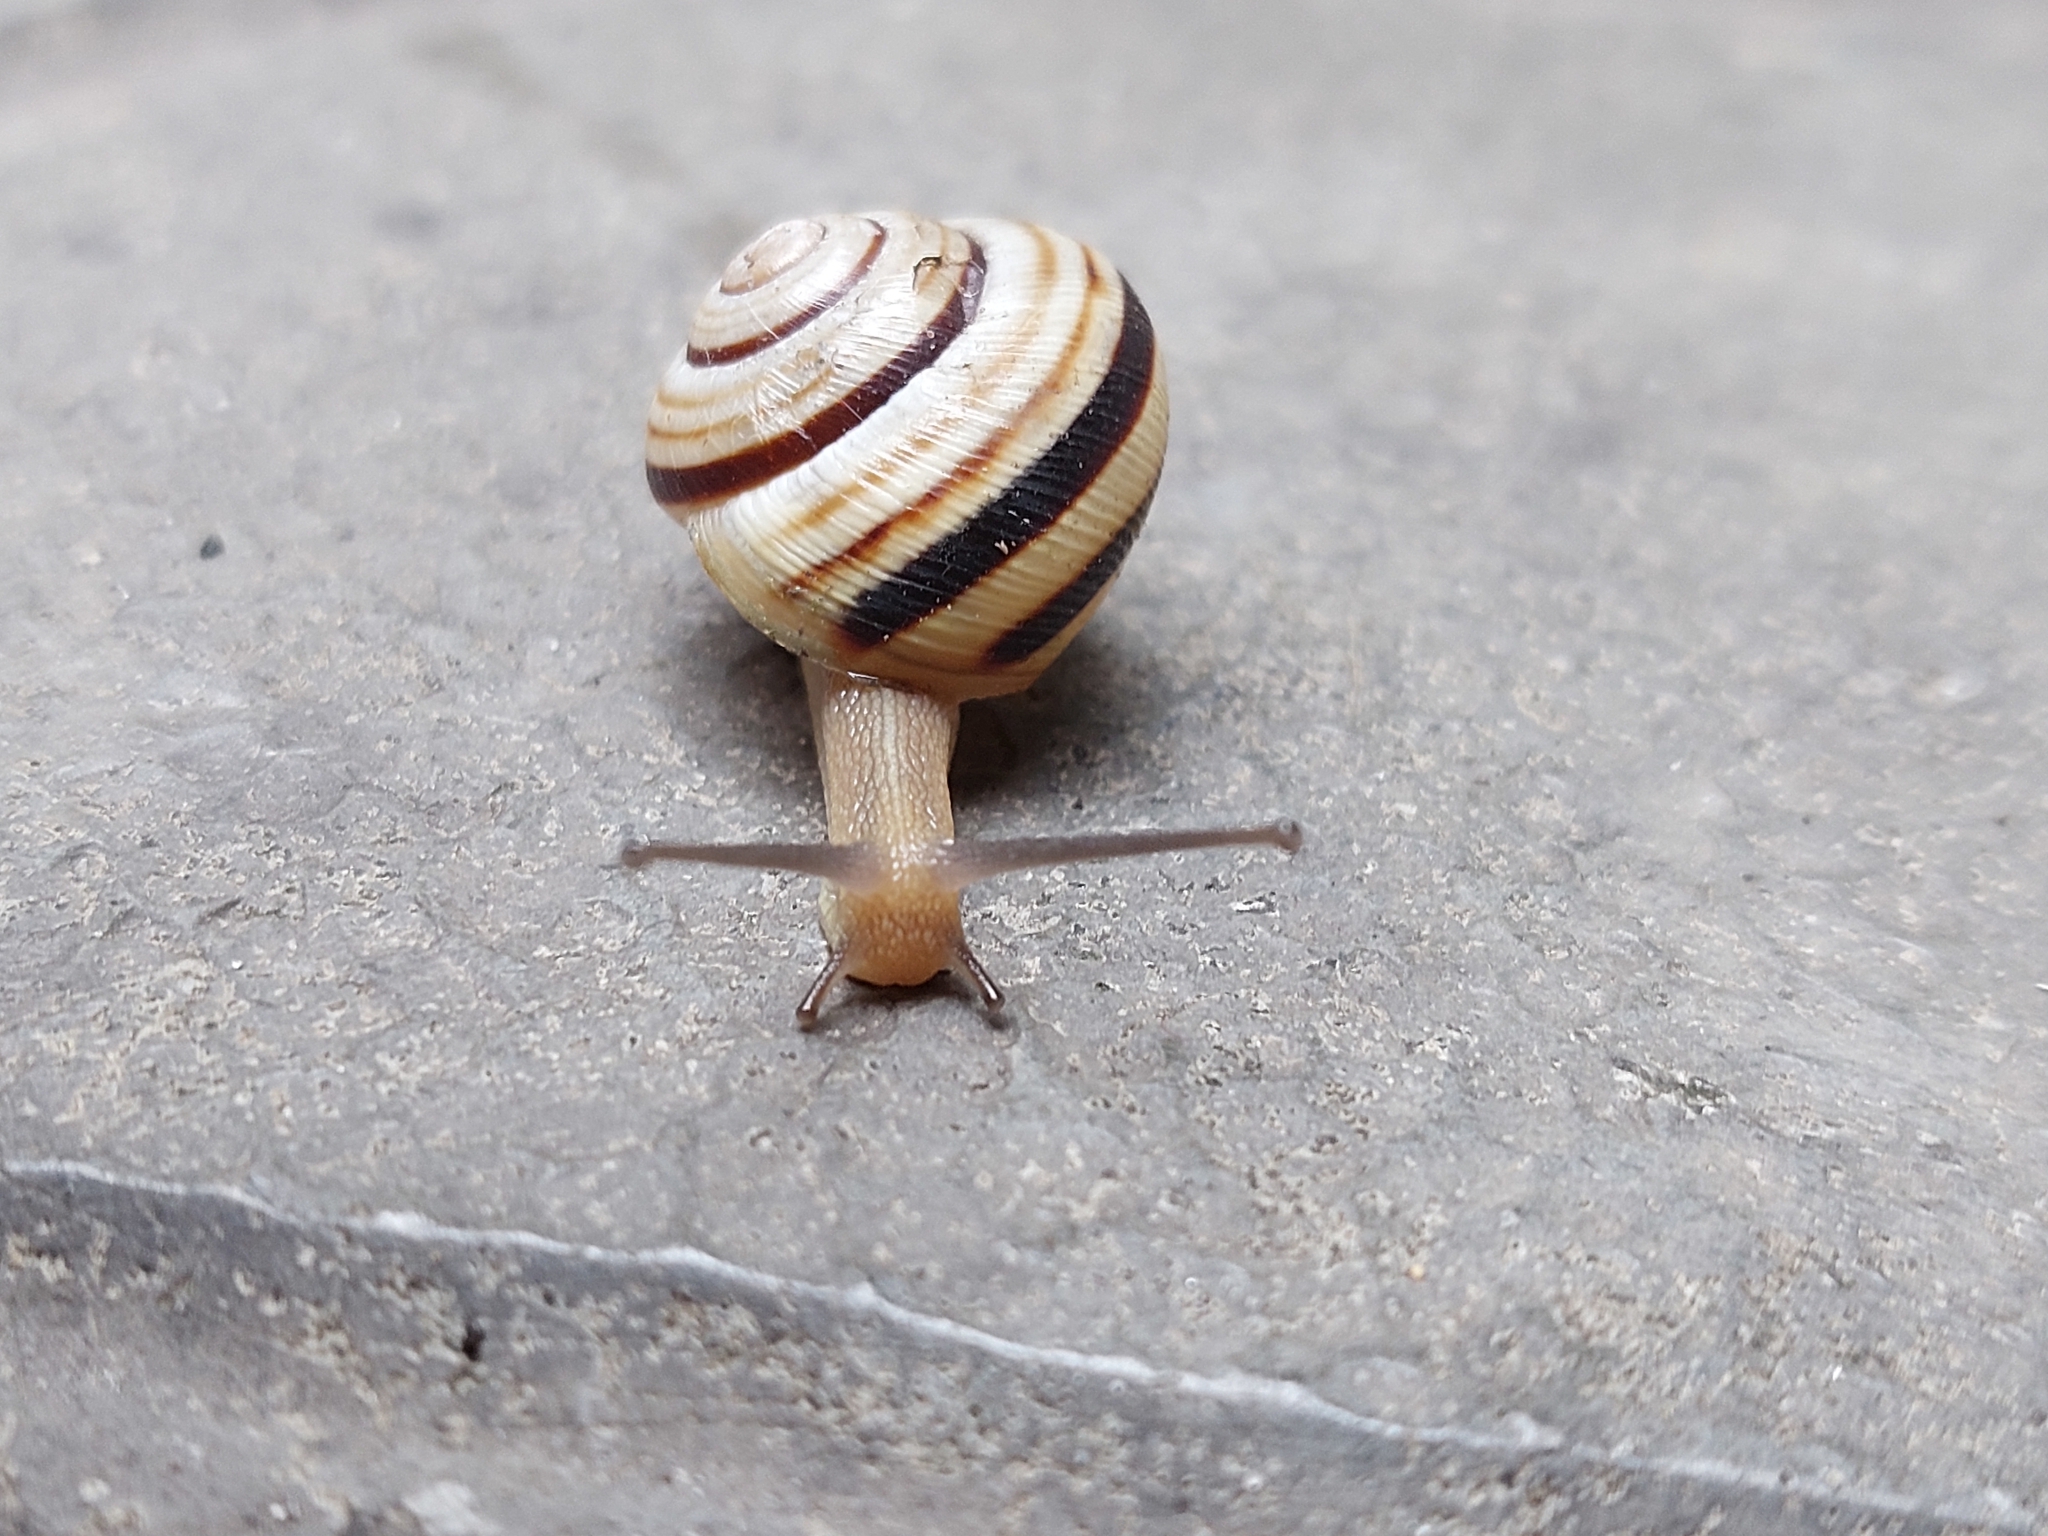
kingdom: Animalia
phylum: Mollusca
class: Gastropoda
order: Stylommatophora
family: Helicidae
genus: Caucasotachea
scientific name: Caucasotachea vindobonensis
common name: European helicid land snail
